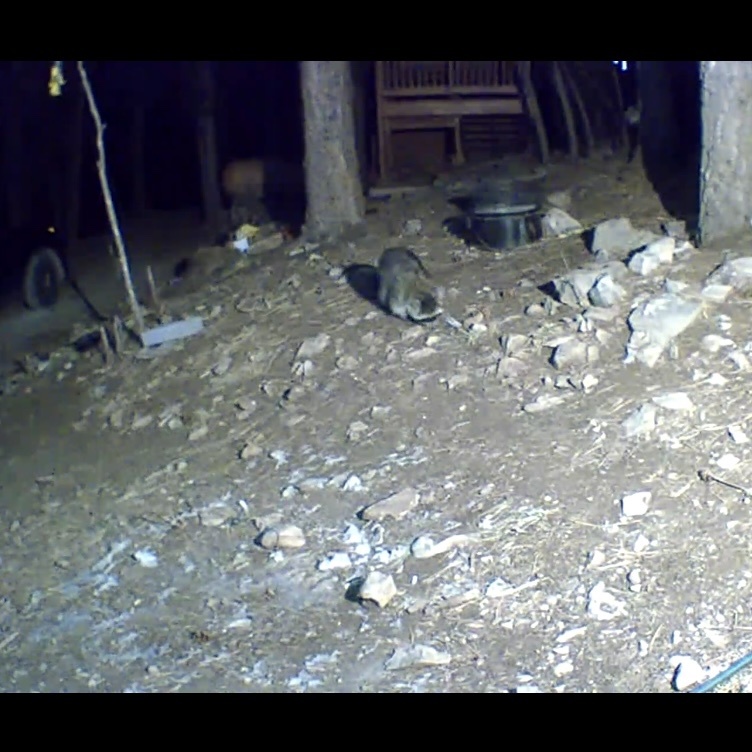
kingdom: Animalia
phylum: Chordata
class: Mammalia
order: Carnivora
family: Procyonidae
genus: Procyon
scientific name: Procyon lotor
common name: Raccoon
